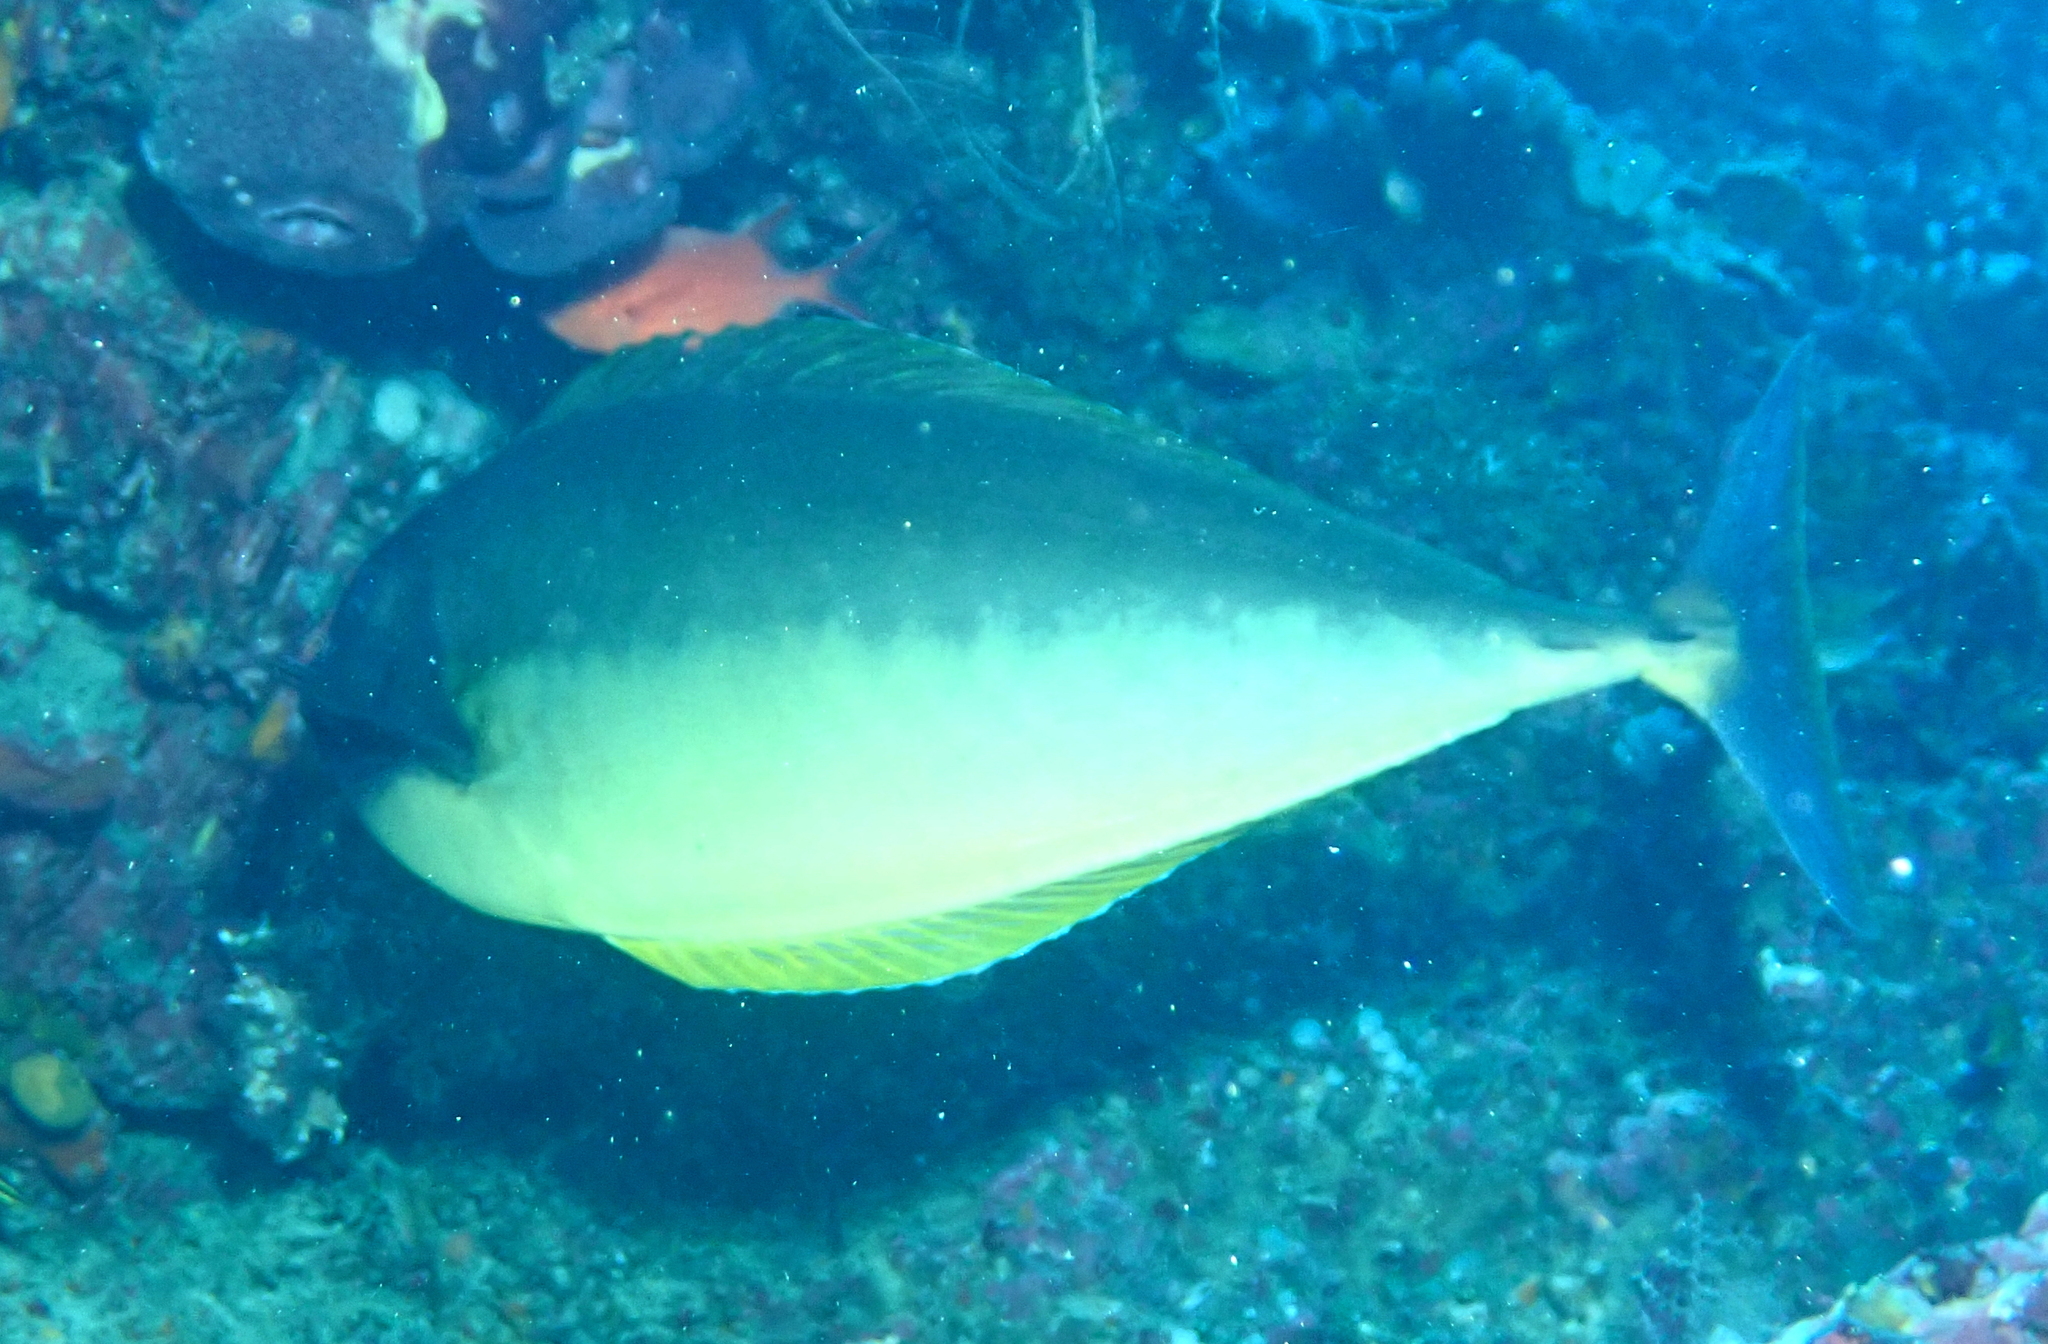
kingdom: Animalia
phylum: Chordata
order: Perciformes
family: Acanthuridae
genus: Naso
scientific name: Naso hexacanthus
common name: Black unicornfish
